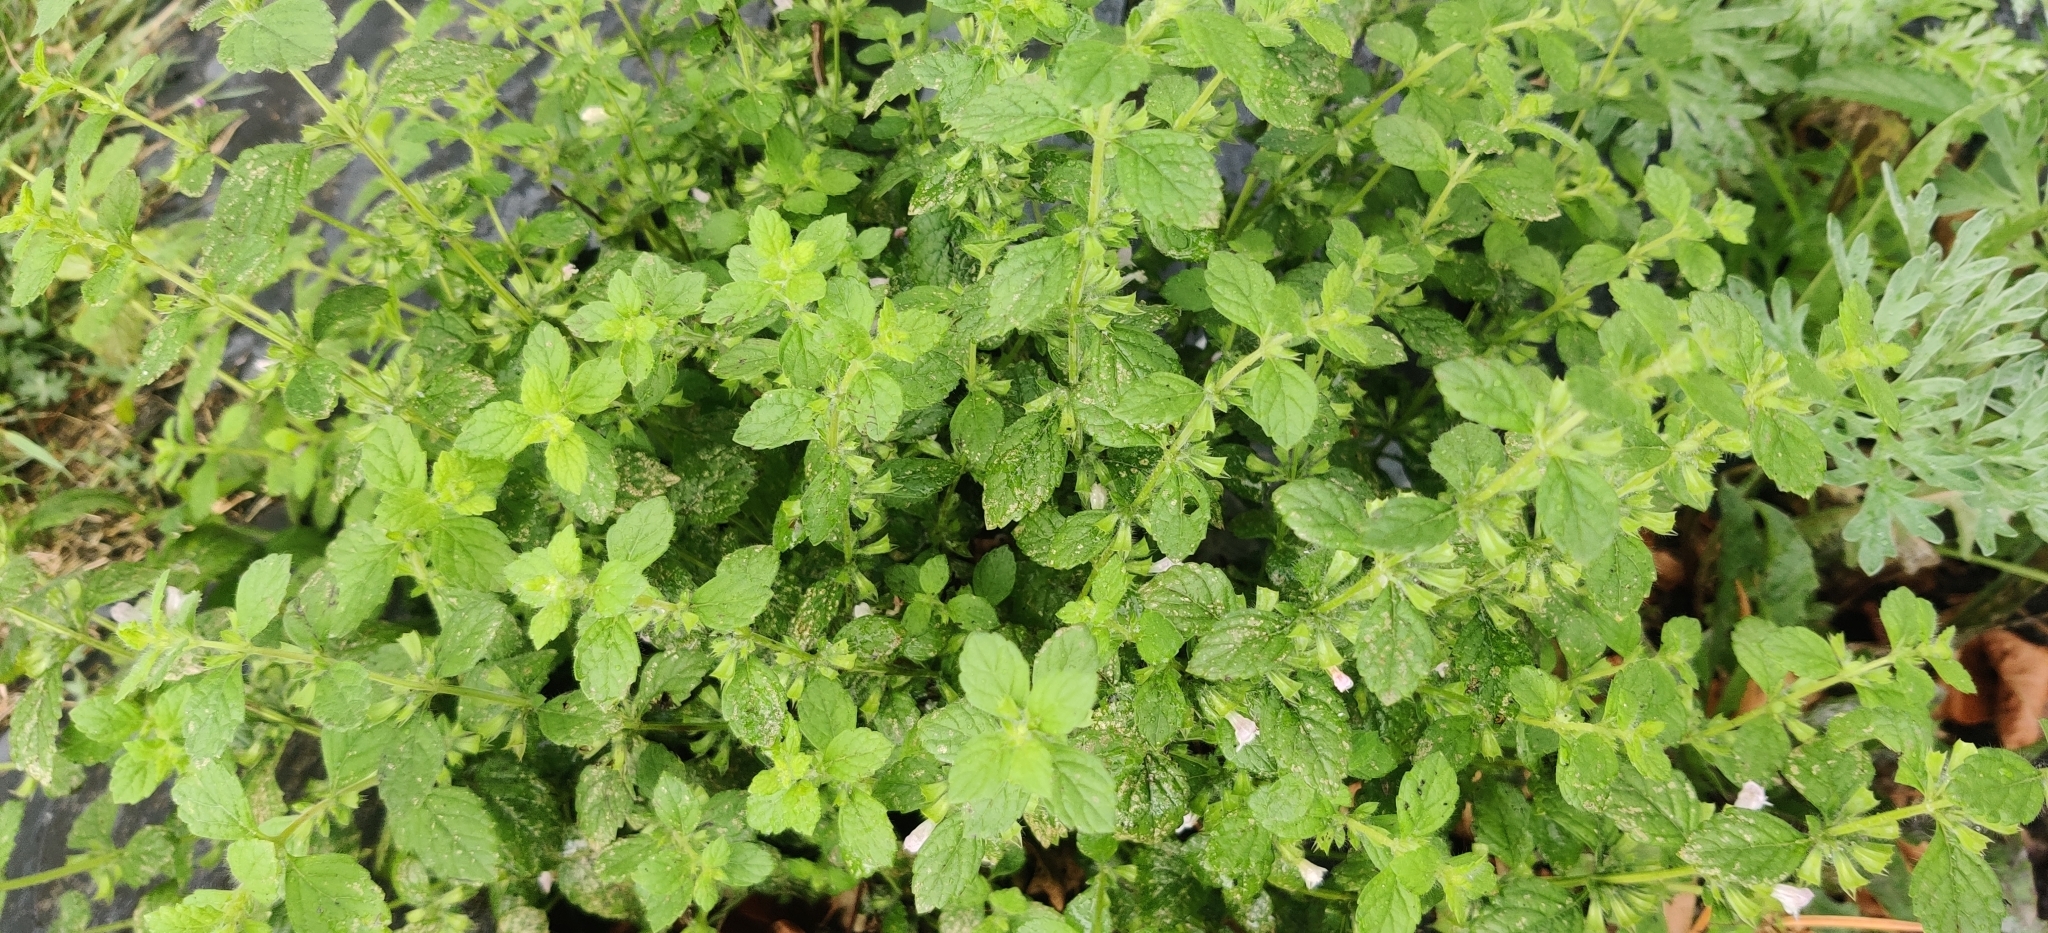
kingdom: Plantae
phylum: Tracheophyta
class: Magnoliopsida
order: Lamiales
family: Lamiaceae
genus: Melissa
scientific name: Melissa officinalis
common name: Balm
